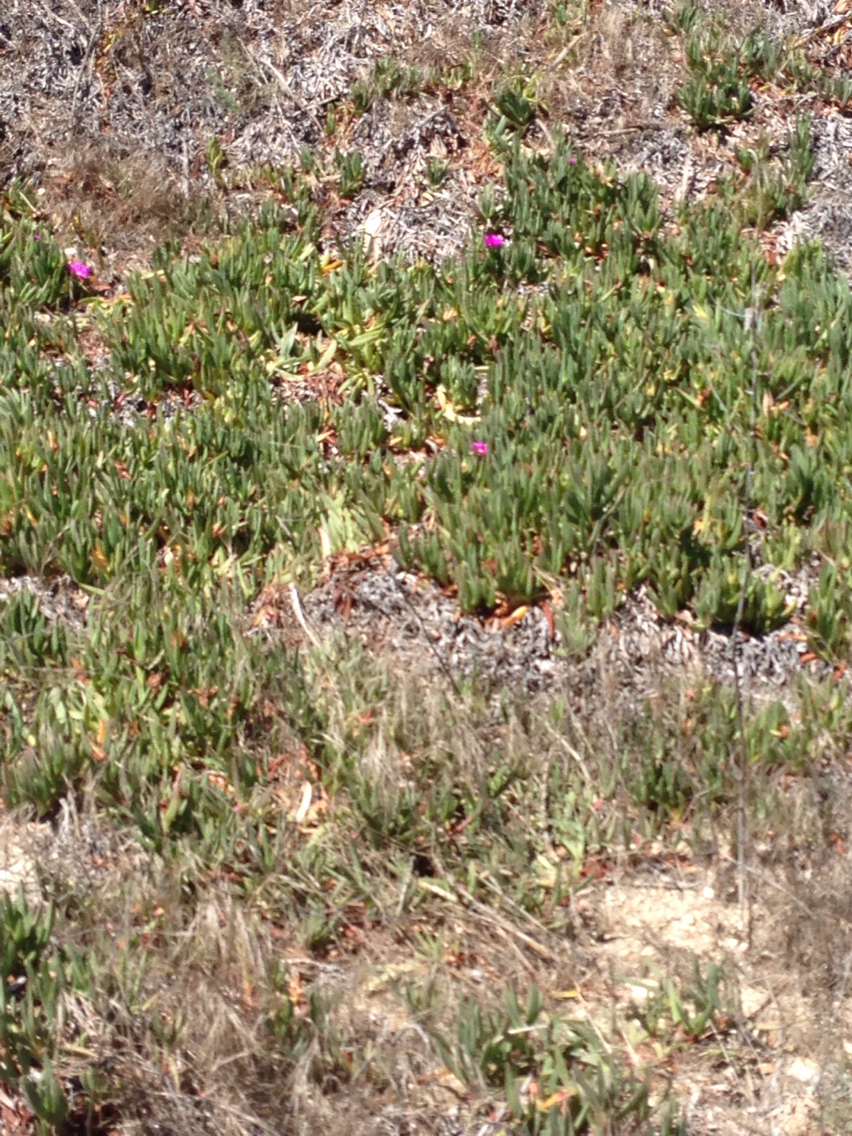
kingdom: Plantae
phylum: Tracheophyta
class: Magnoliopsida
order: Caryophyllales
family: Aizoaceae
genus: Carpobrotus
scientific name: Carpobrotus chilensis
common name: Sea fig
